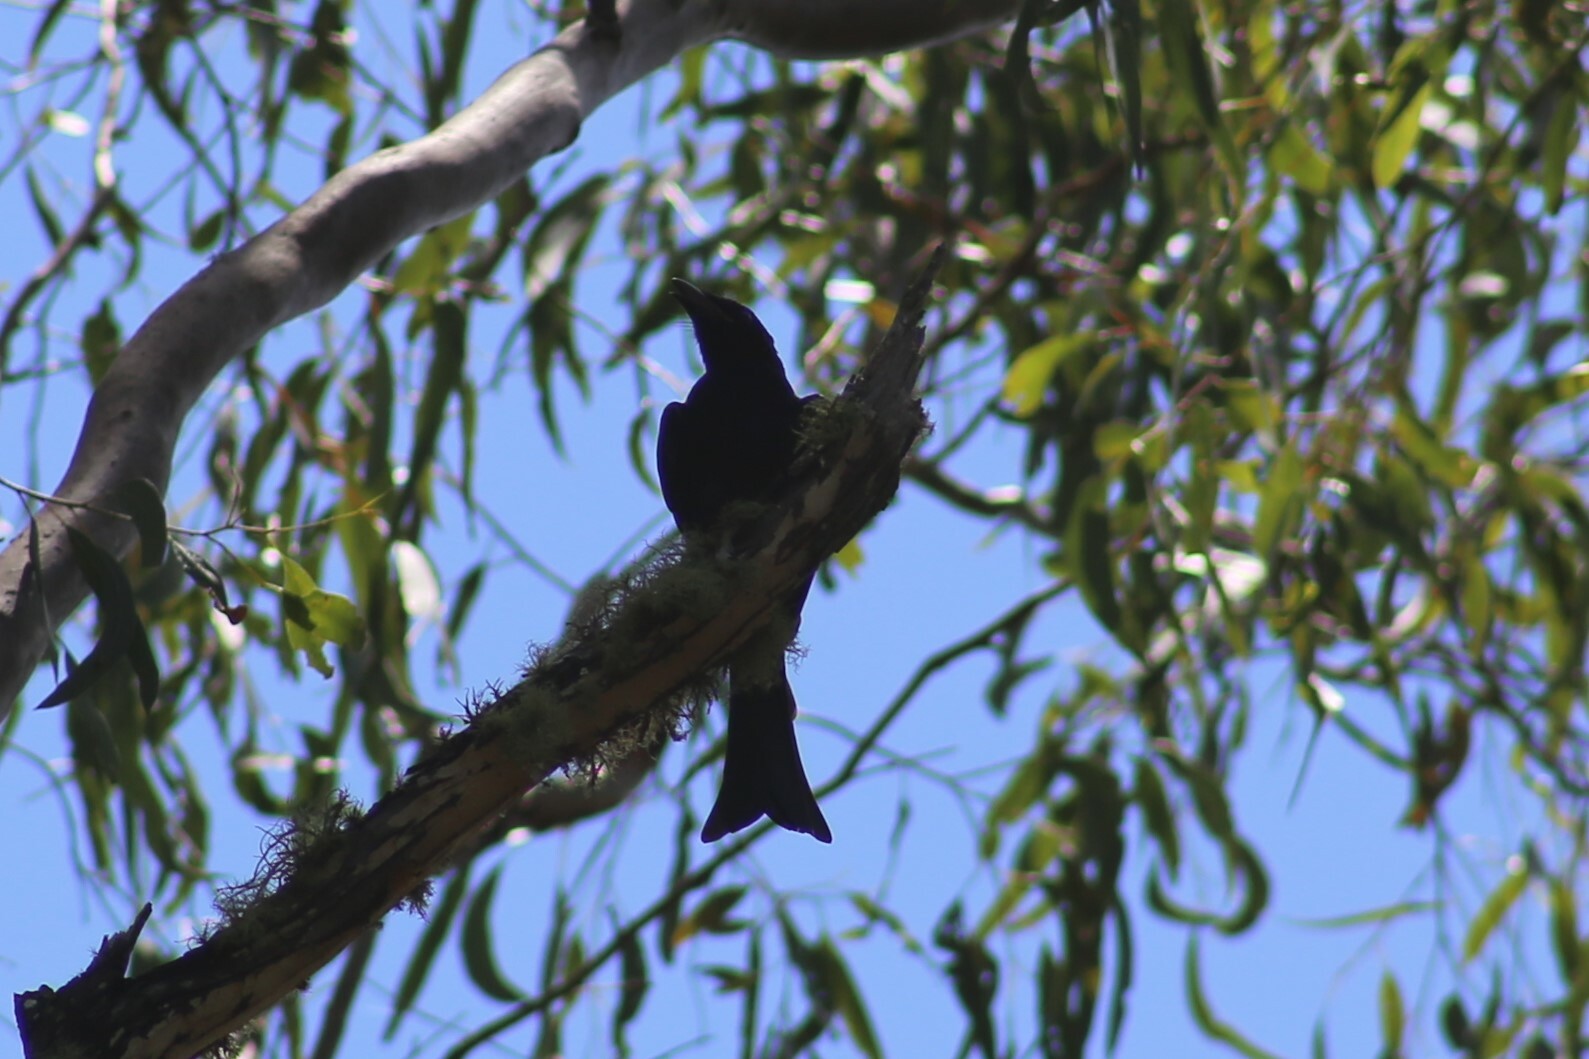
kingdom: Animalia
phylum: Chordata
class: Aves
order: Passeriformes
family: Dicruridae
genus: Dicrurus
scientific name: Dicrurus bracteatus
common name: Spangled drongo
